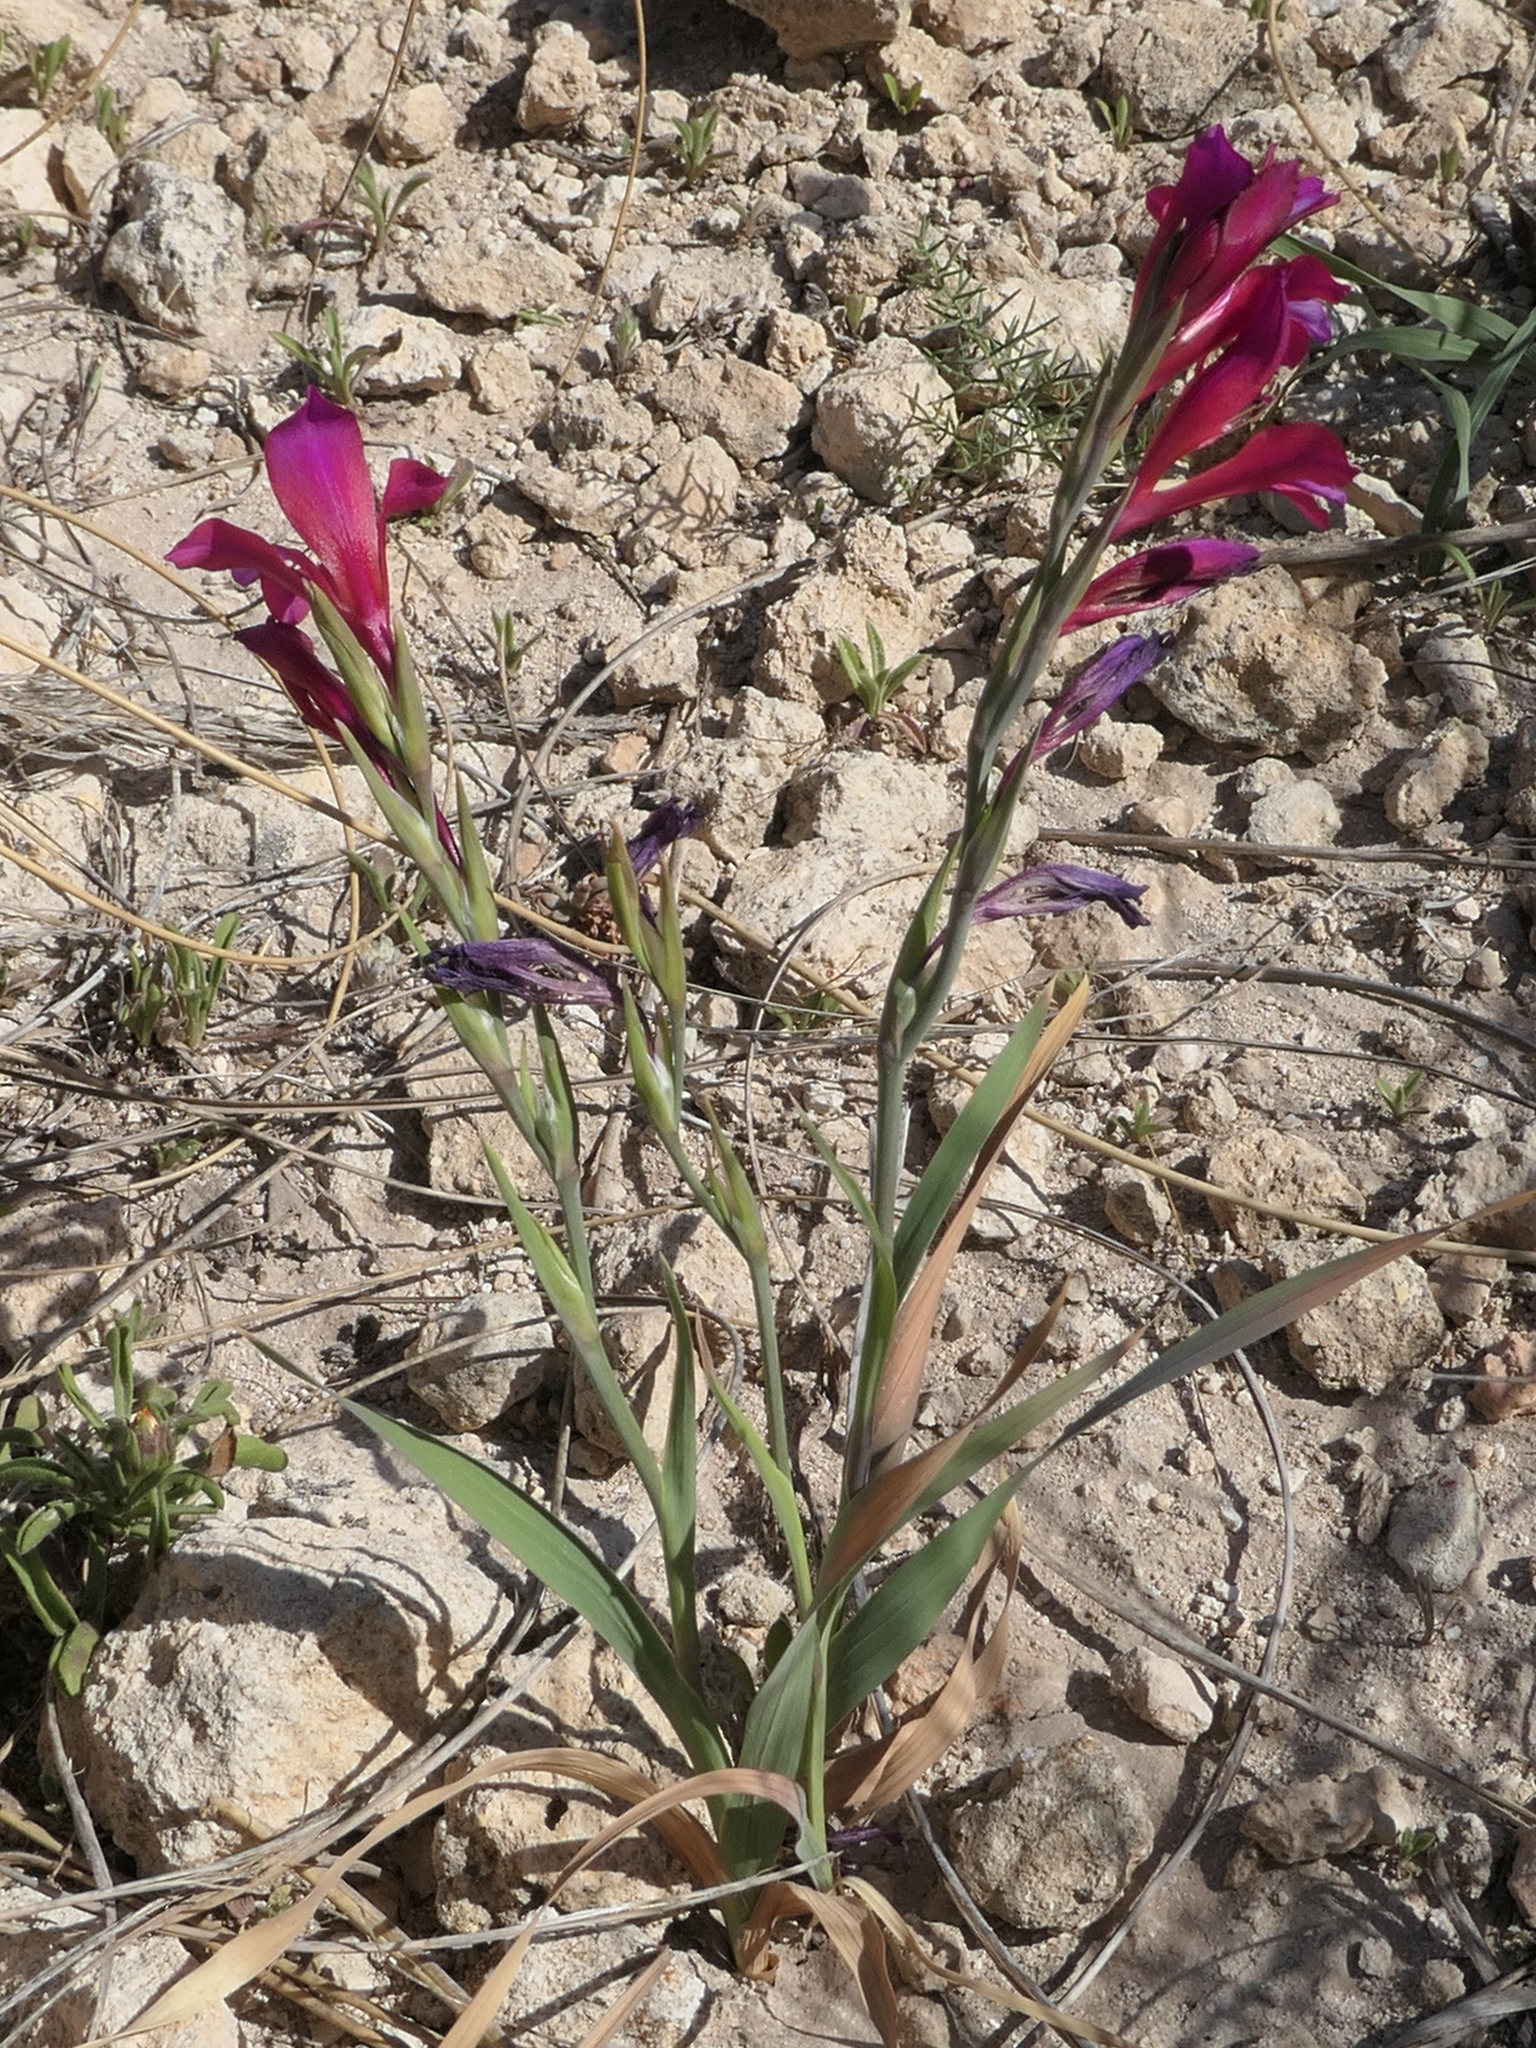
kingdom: Plantae
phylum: Tracheophyta
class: Liliopsida
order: Asparagales
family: Iridaceae
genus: Gladiolus
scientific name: Gladiolus illyricus
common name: Wild gladiolus
